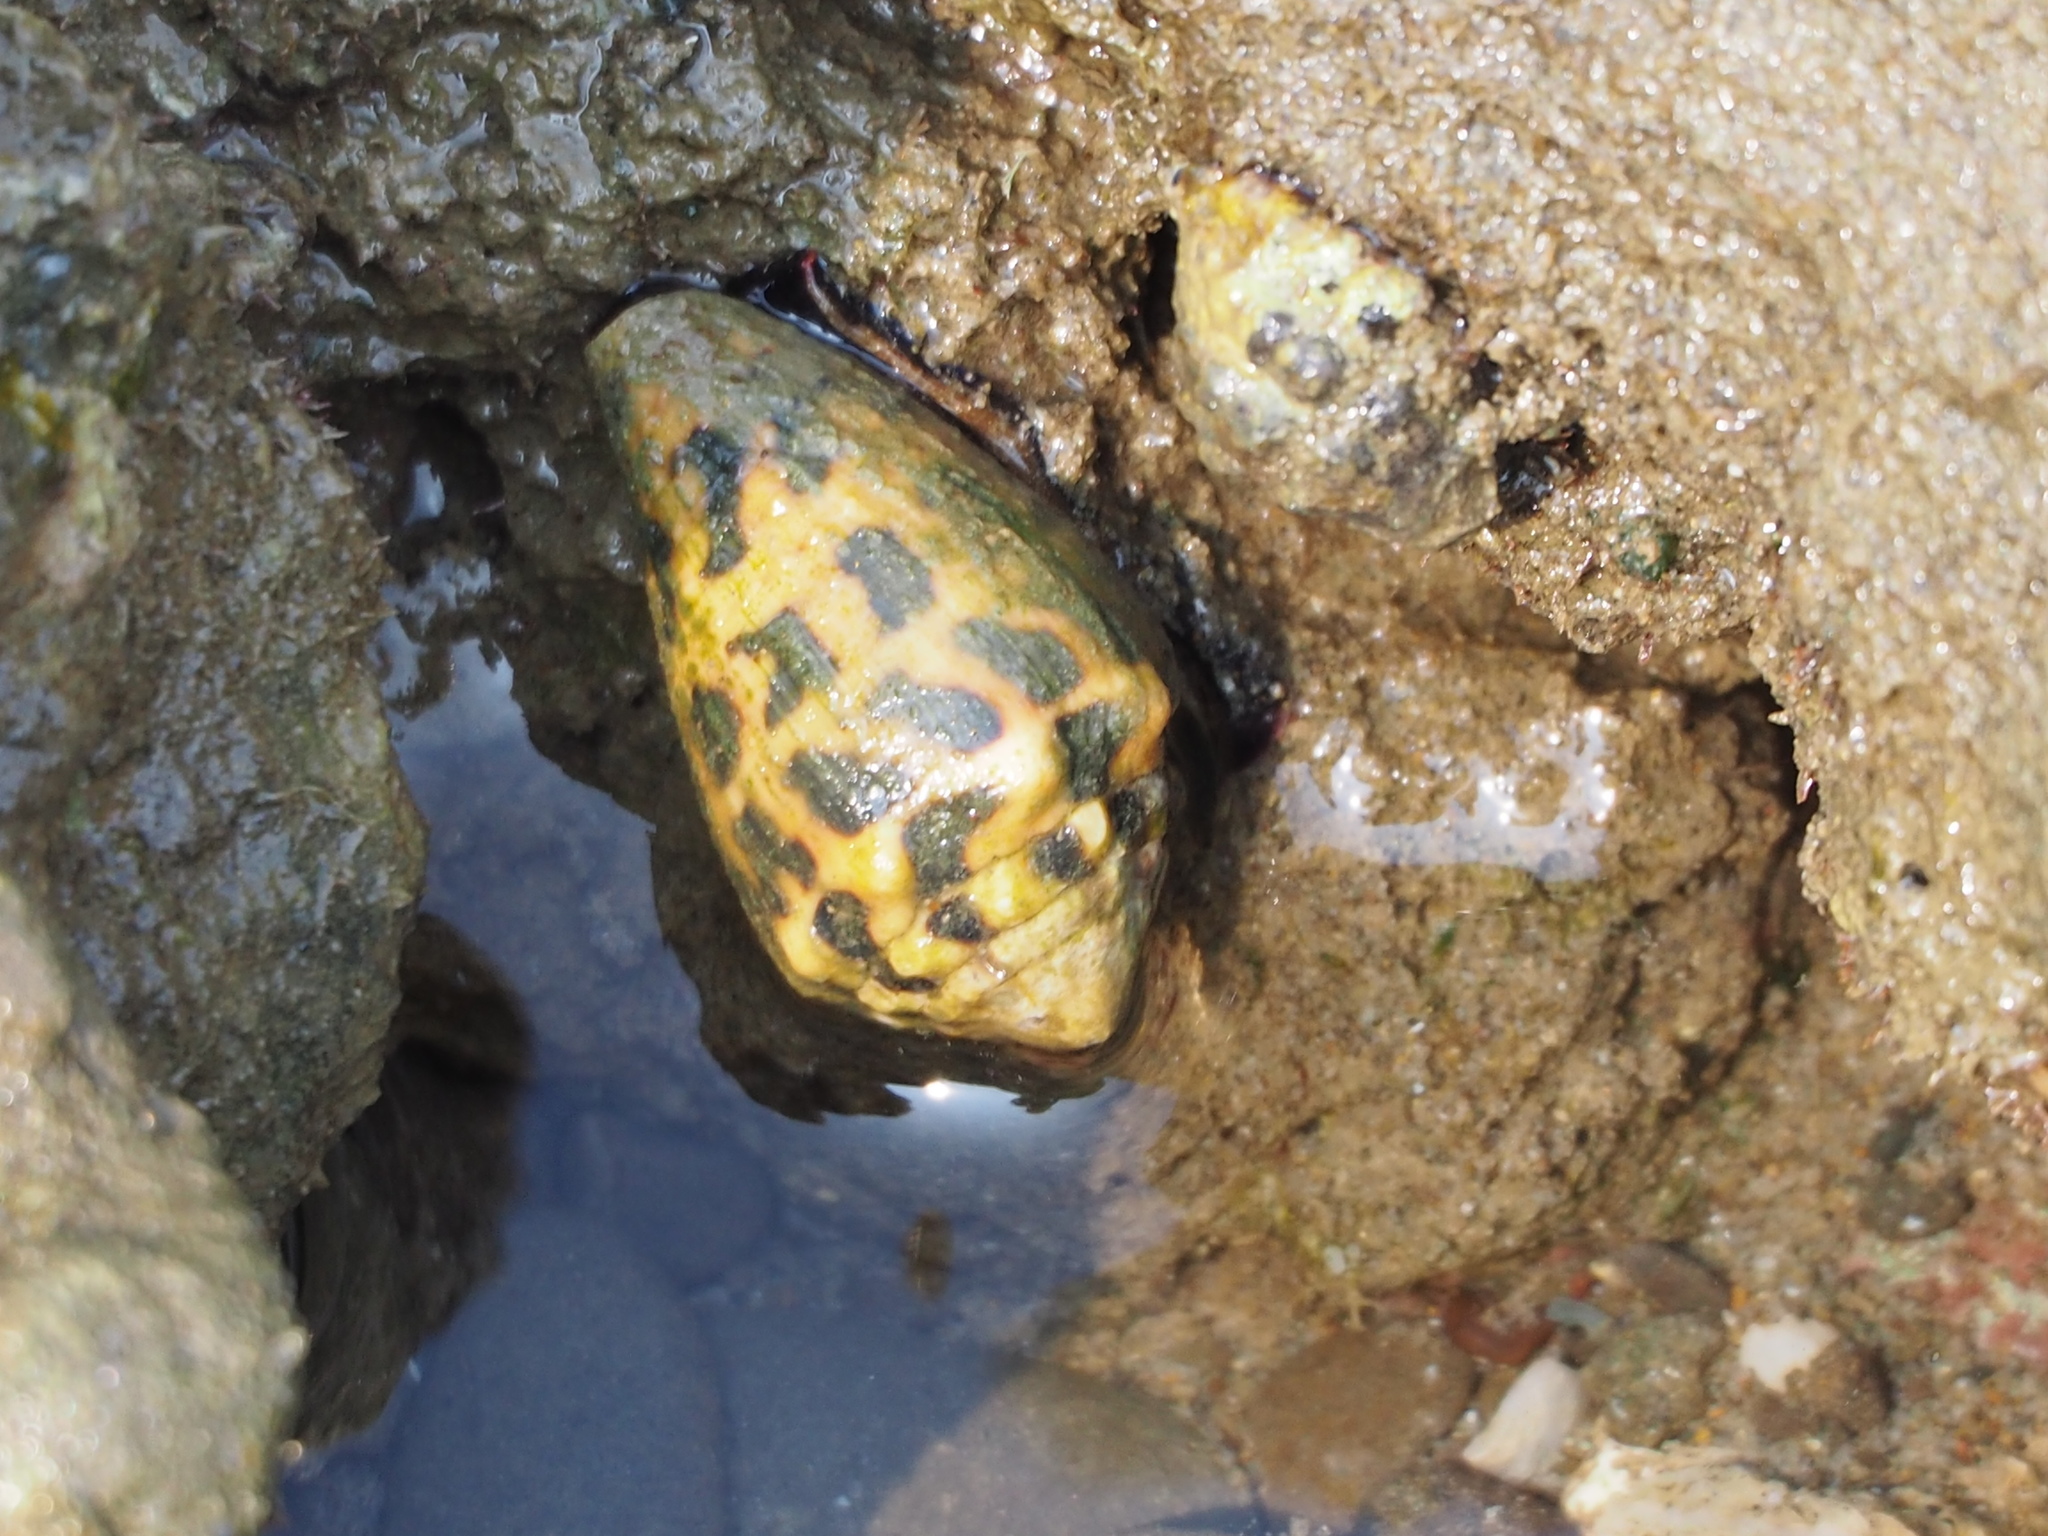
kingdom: Animalia
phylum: Mollusca
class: Gastropoda
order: Neogastropoda
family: Conidae
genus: Conus
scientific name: Conus ebraeus
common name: Hebrew cone
